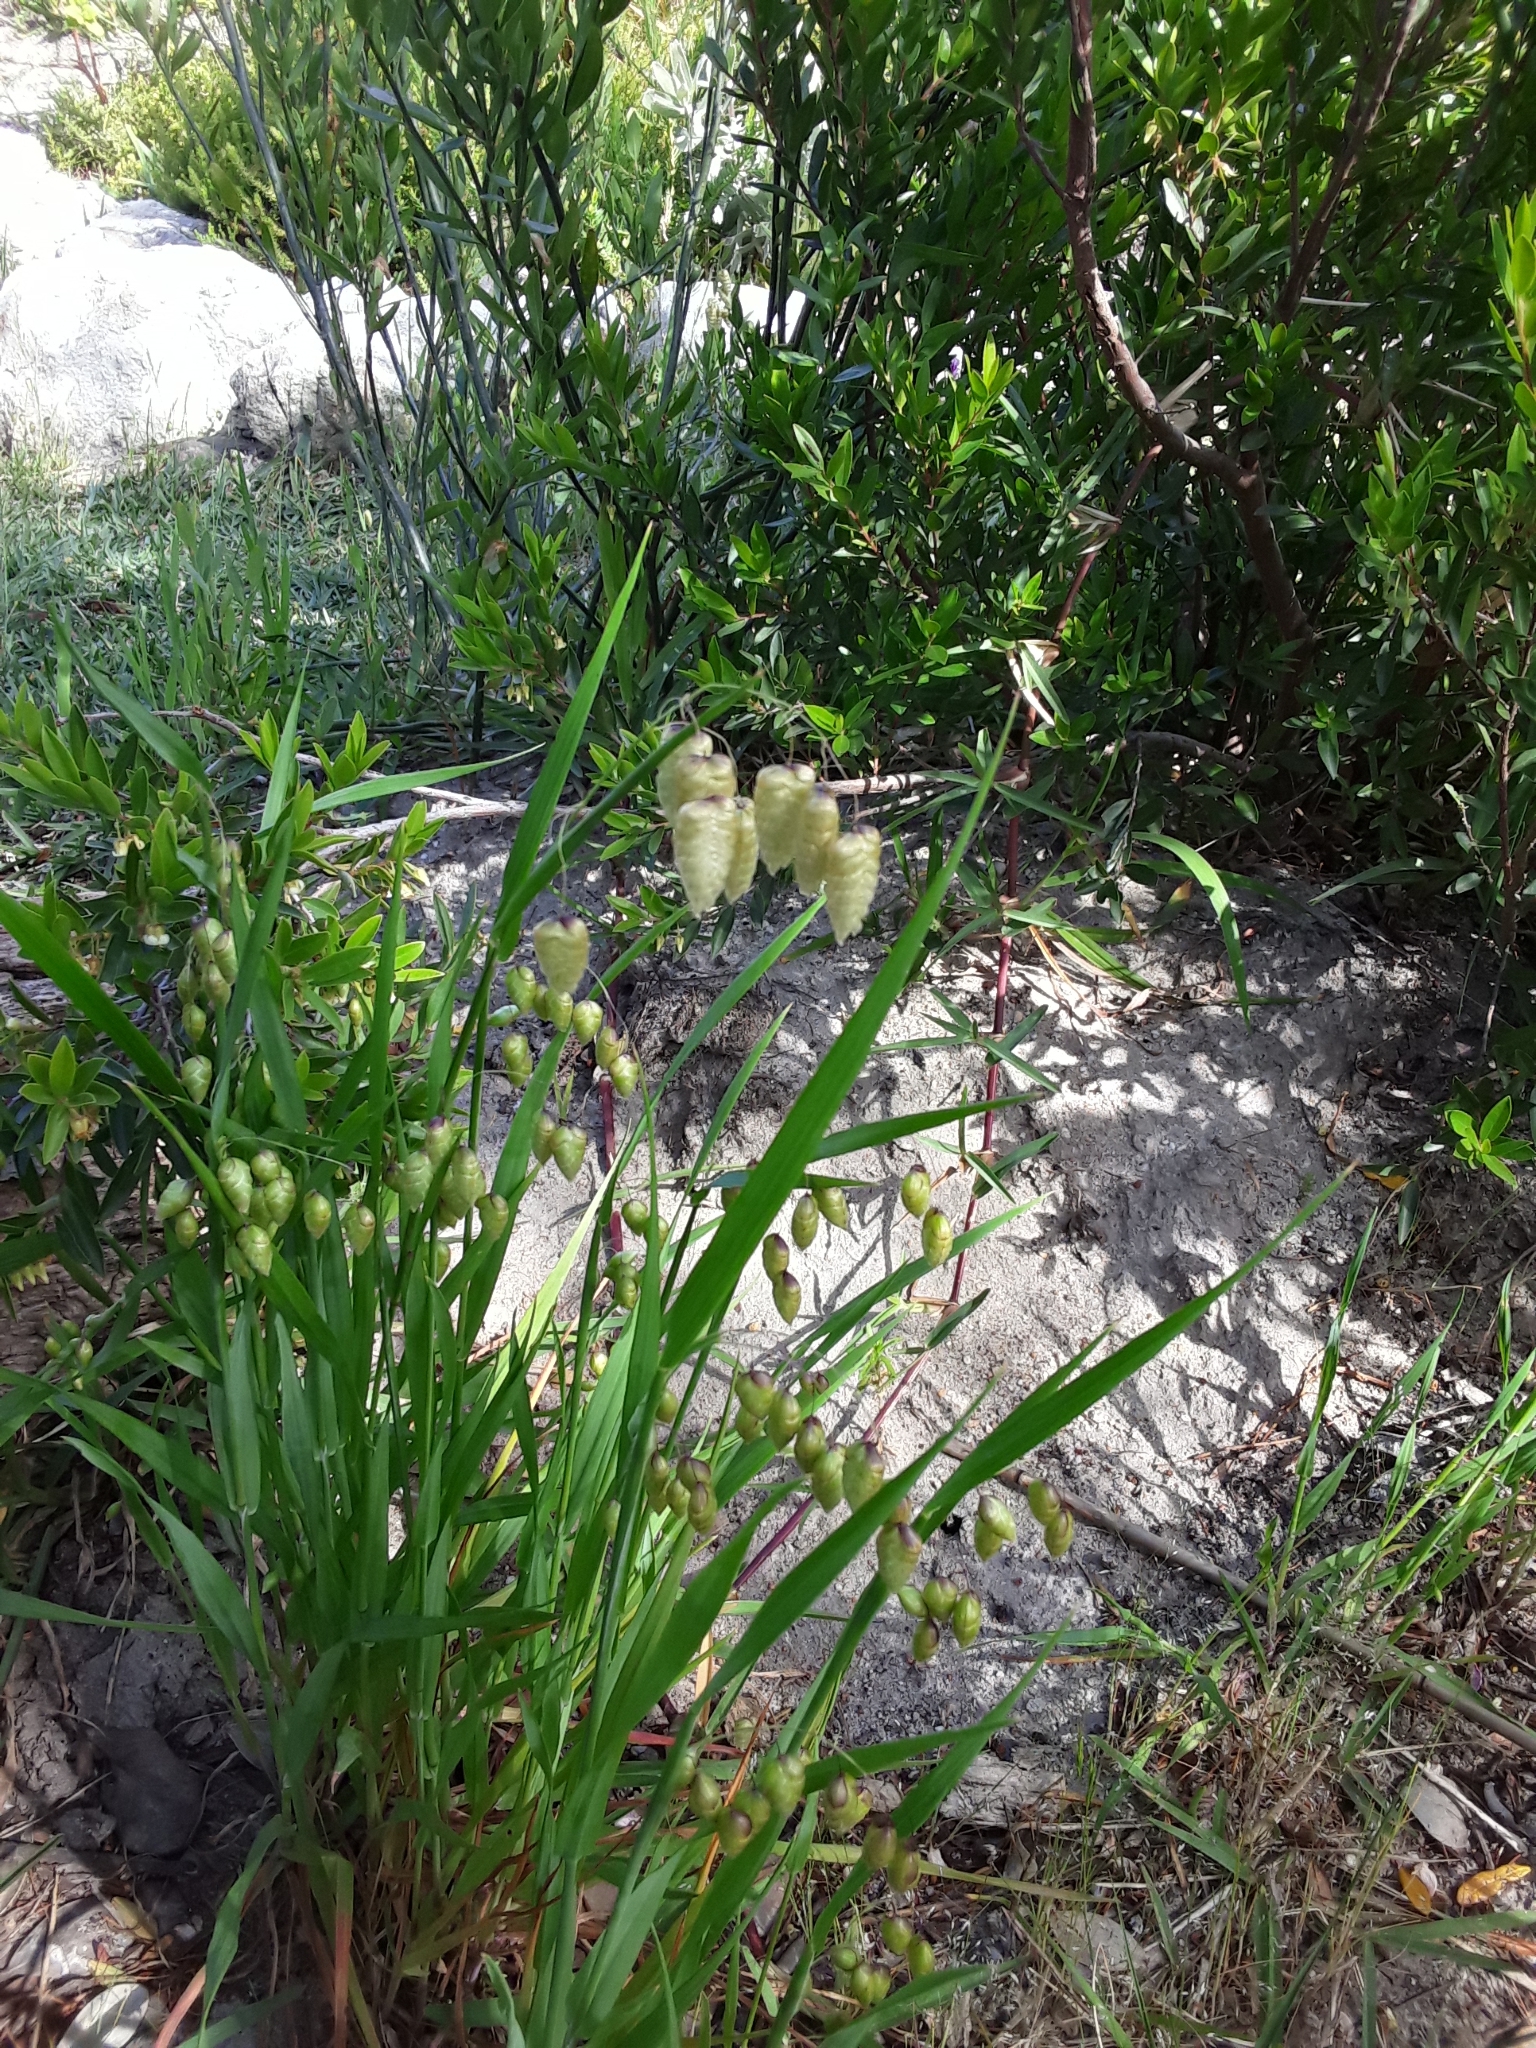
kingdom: Plantae
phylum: Tracheophyta
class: Liliopsida
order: Poales
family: Poaceae
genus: Briza
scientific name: Briza maxima
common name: Big quakinggrass
